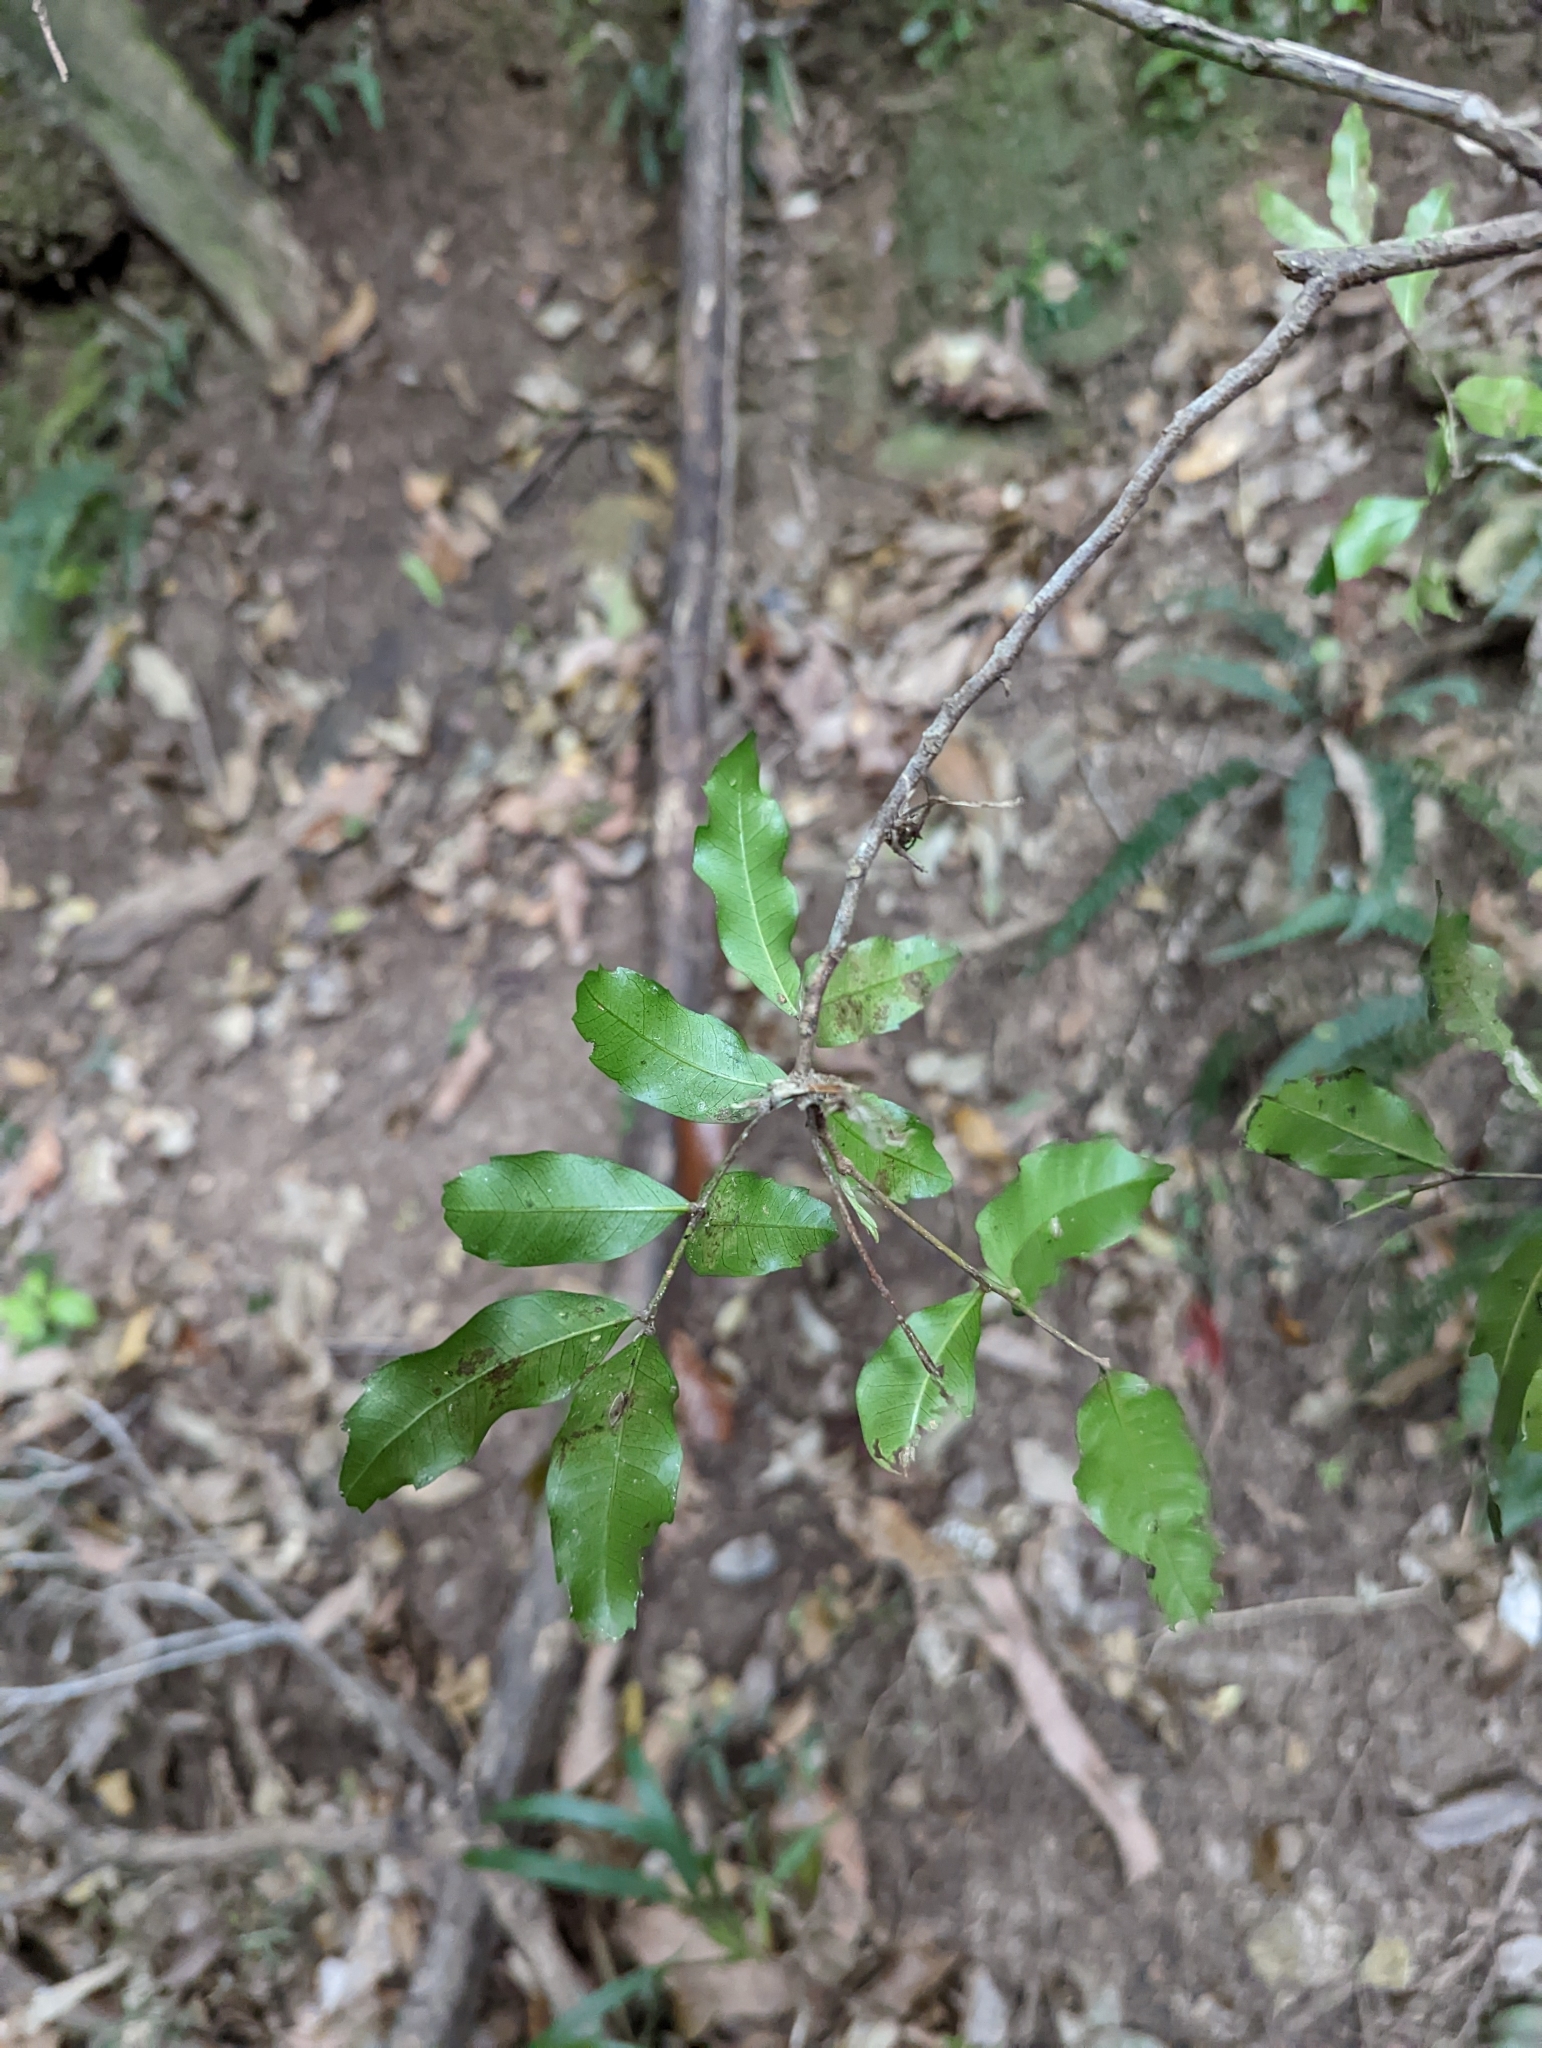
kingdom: Plantae
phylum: Tracheophyta
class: Magnoliopsida
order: Sapindales
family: Sapindaceae
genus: Cupaniopsis
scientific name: Cupaniopsis parvifolia
